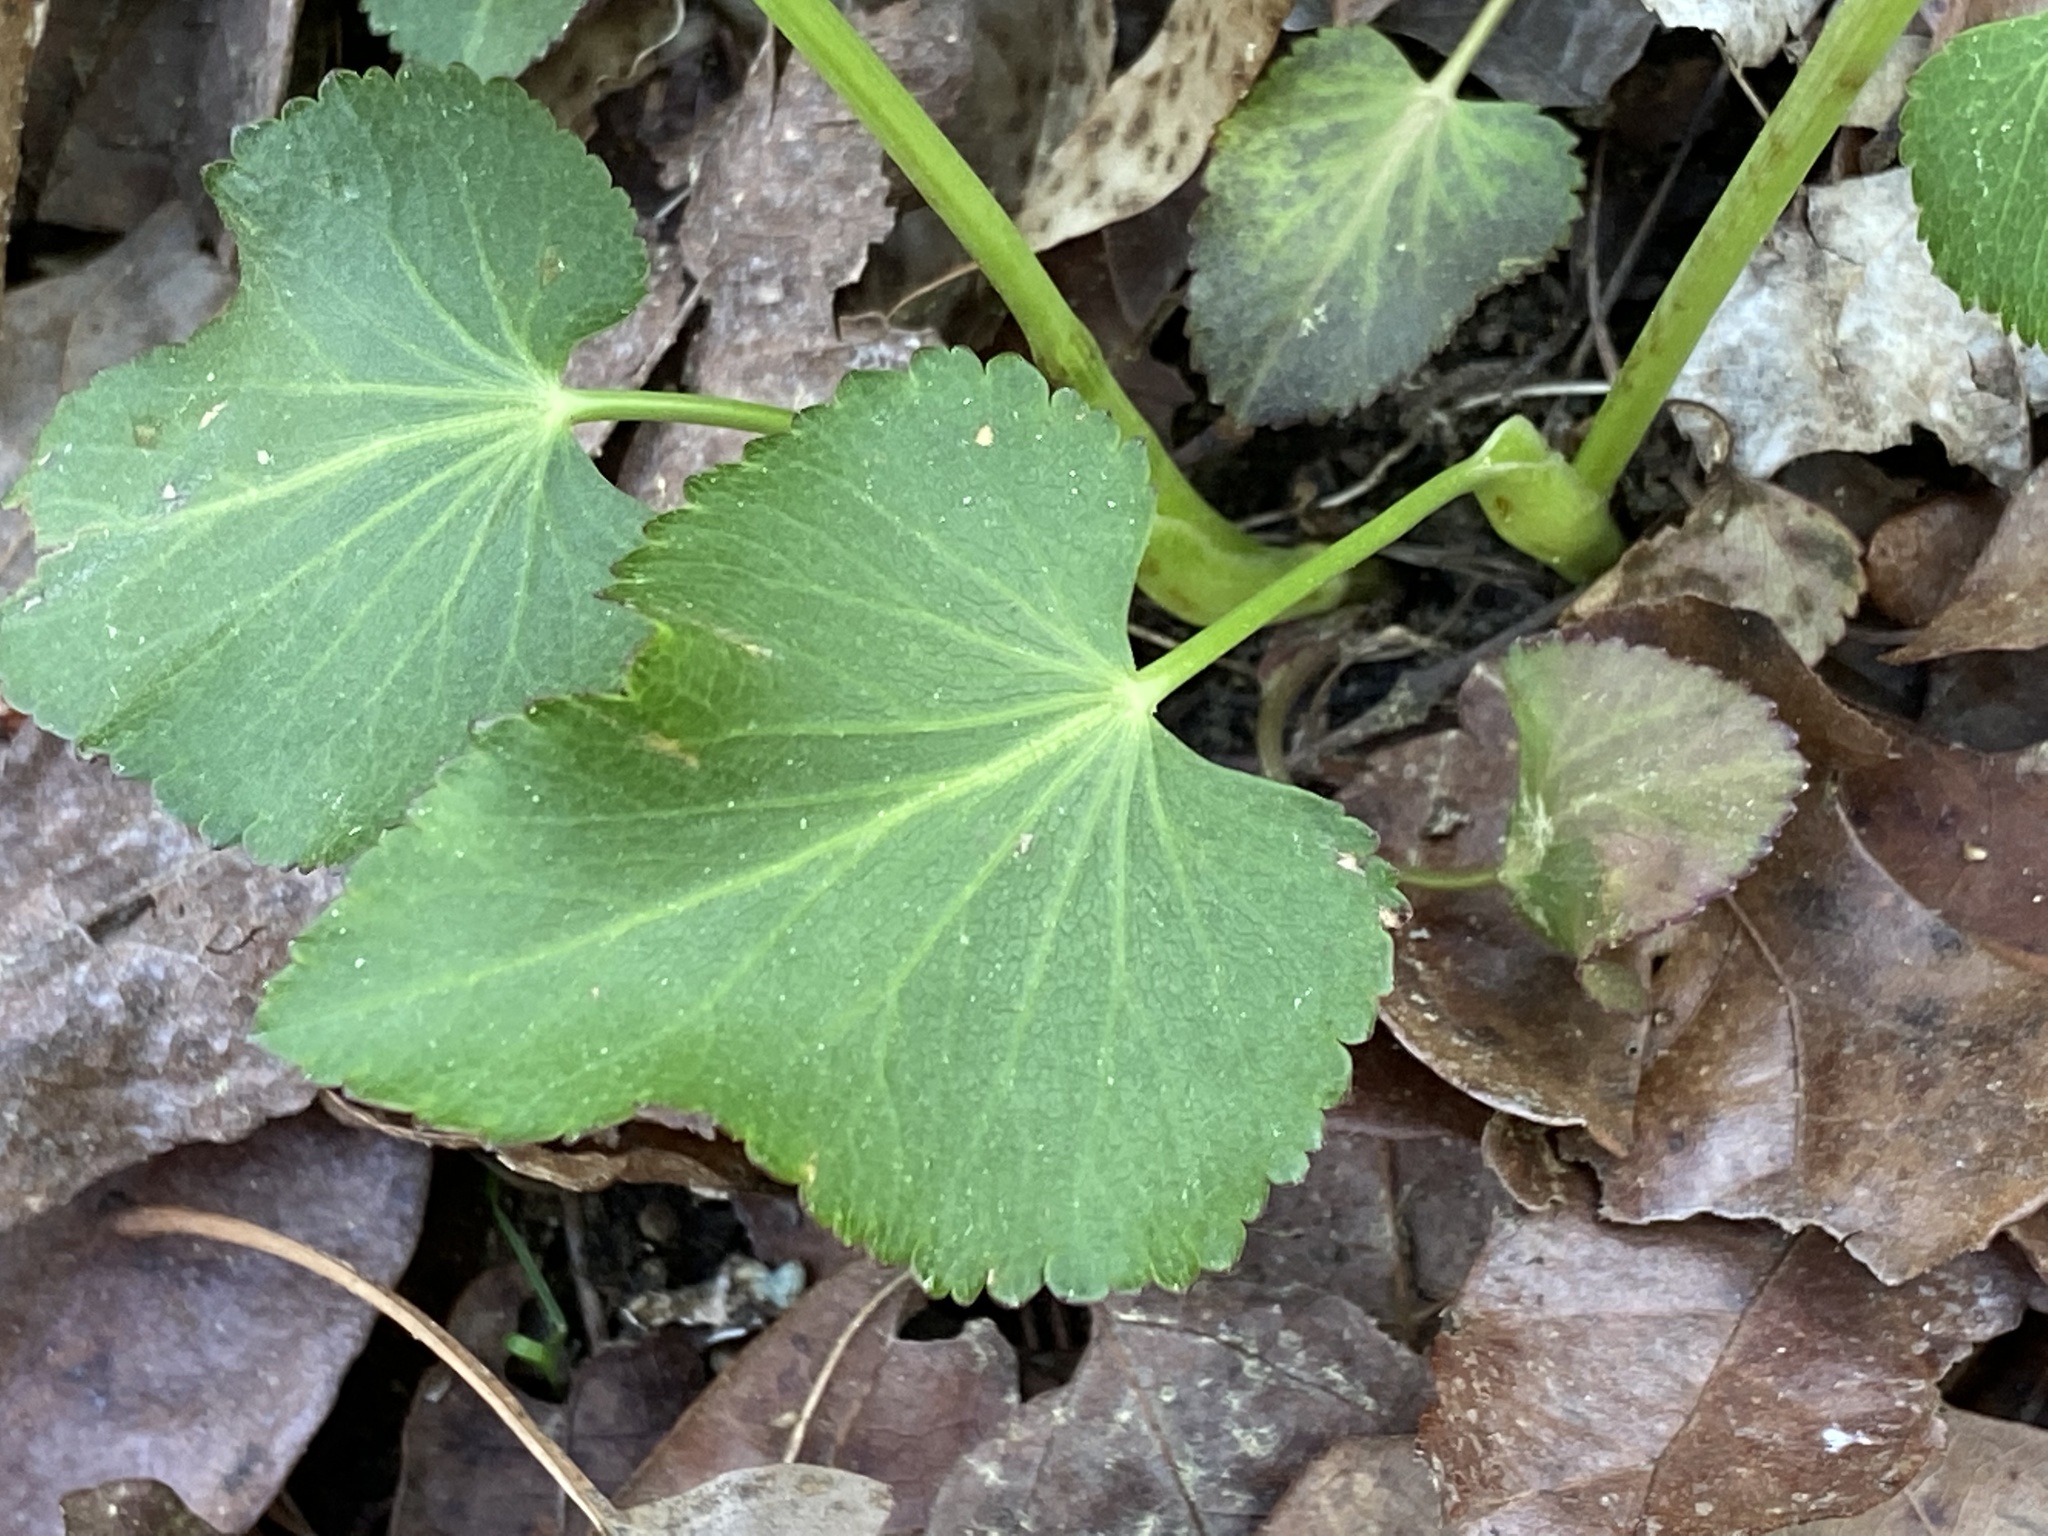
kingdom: Plantae
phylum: Tracheophyta
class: Magnoliopsida
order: Apiales
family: Apiaceae
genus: Zizia
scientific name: Zizia aptera
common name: Heart-leaved alexanders
